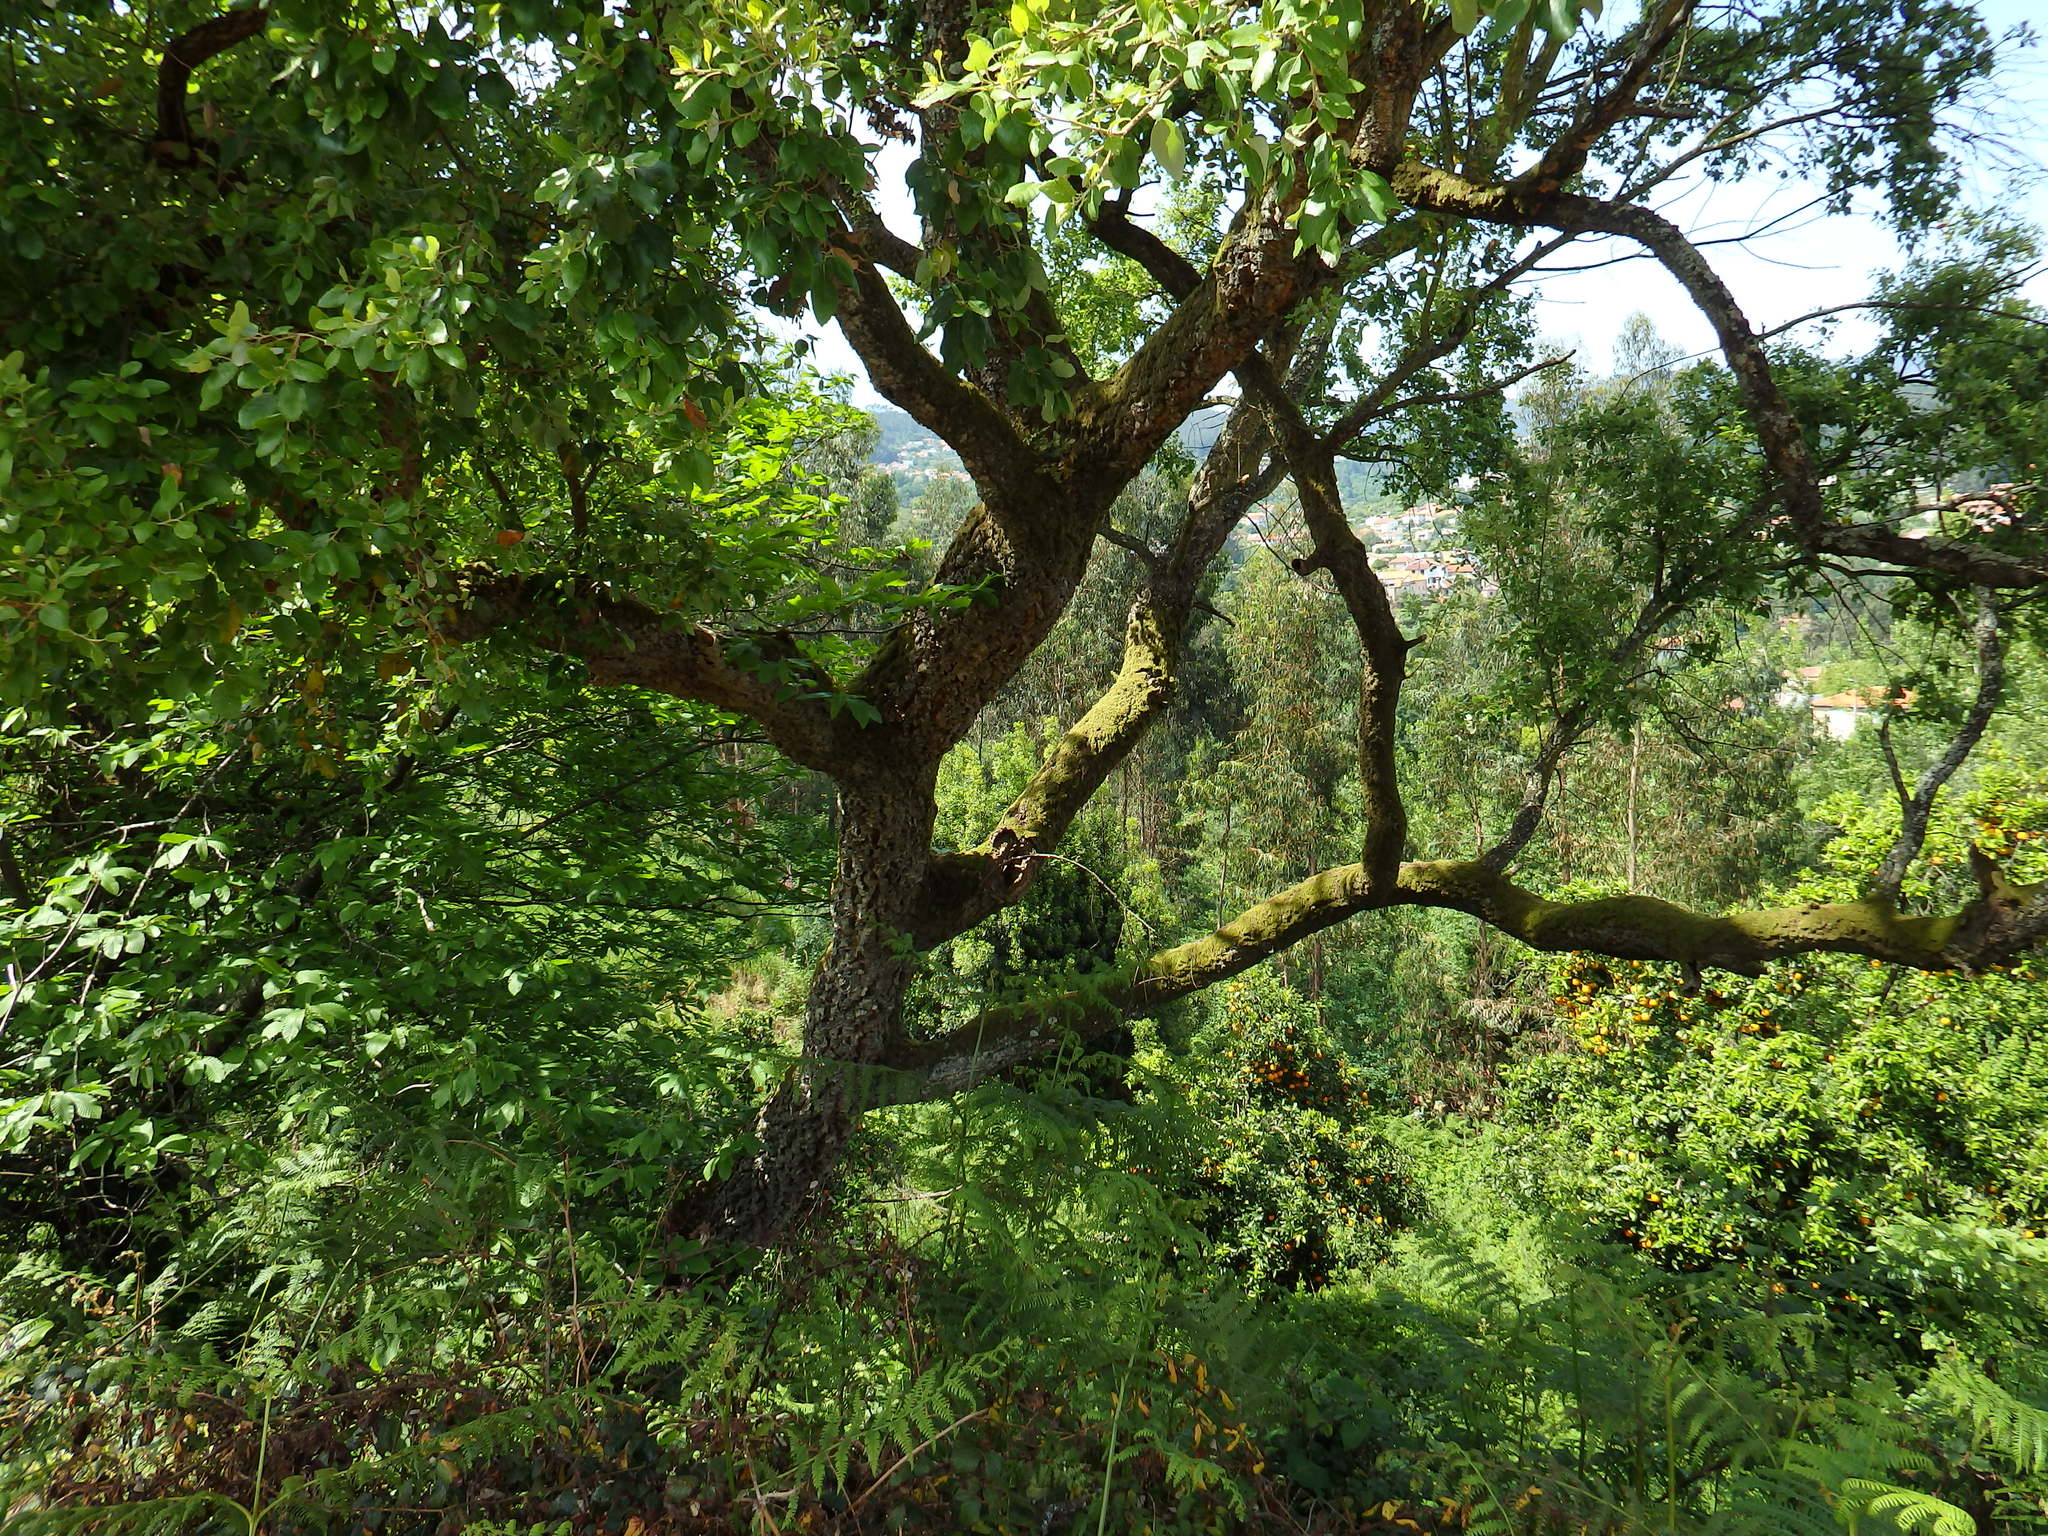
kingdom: Plantae
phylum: Tracheophyta
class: Magnoliopsida
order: Fagales
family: Fagaceae
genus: Quercus
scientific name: Quercus suber
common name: Cork oak
